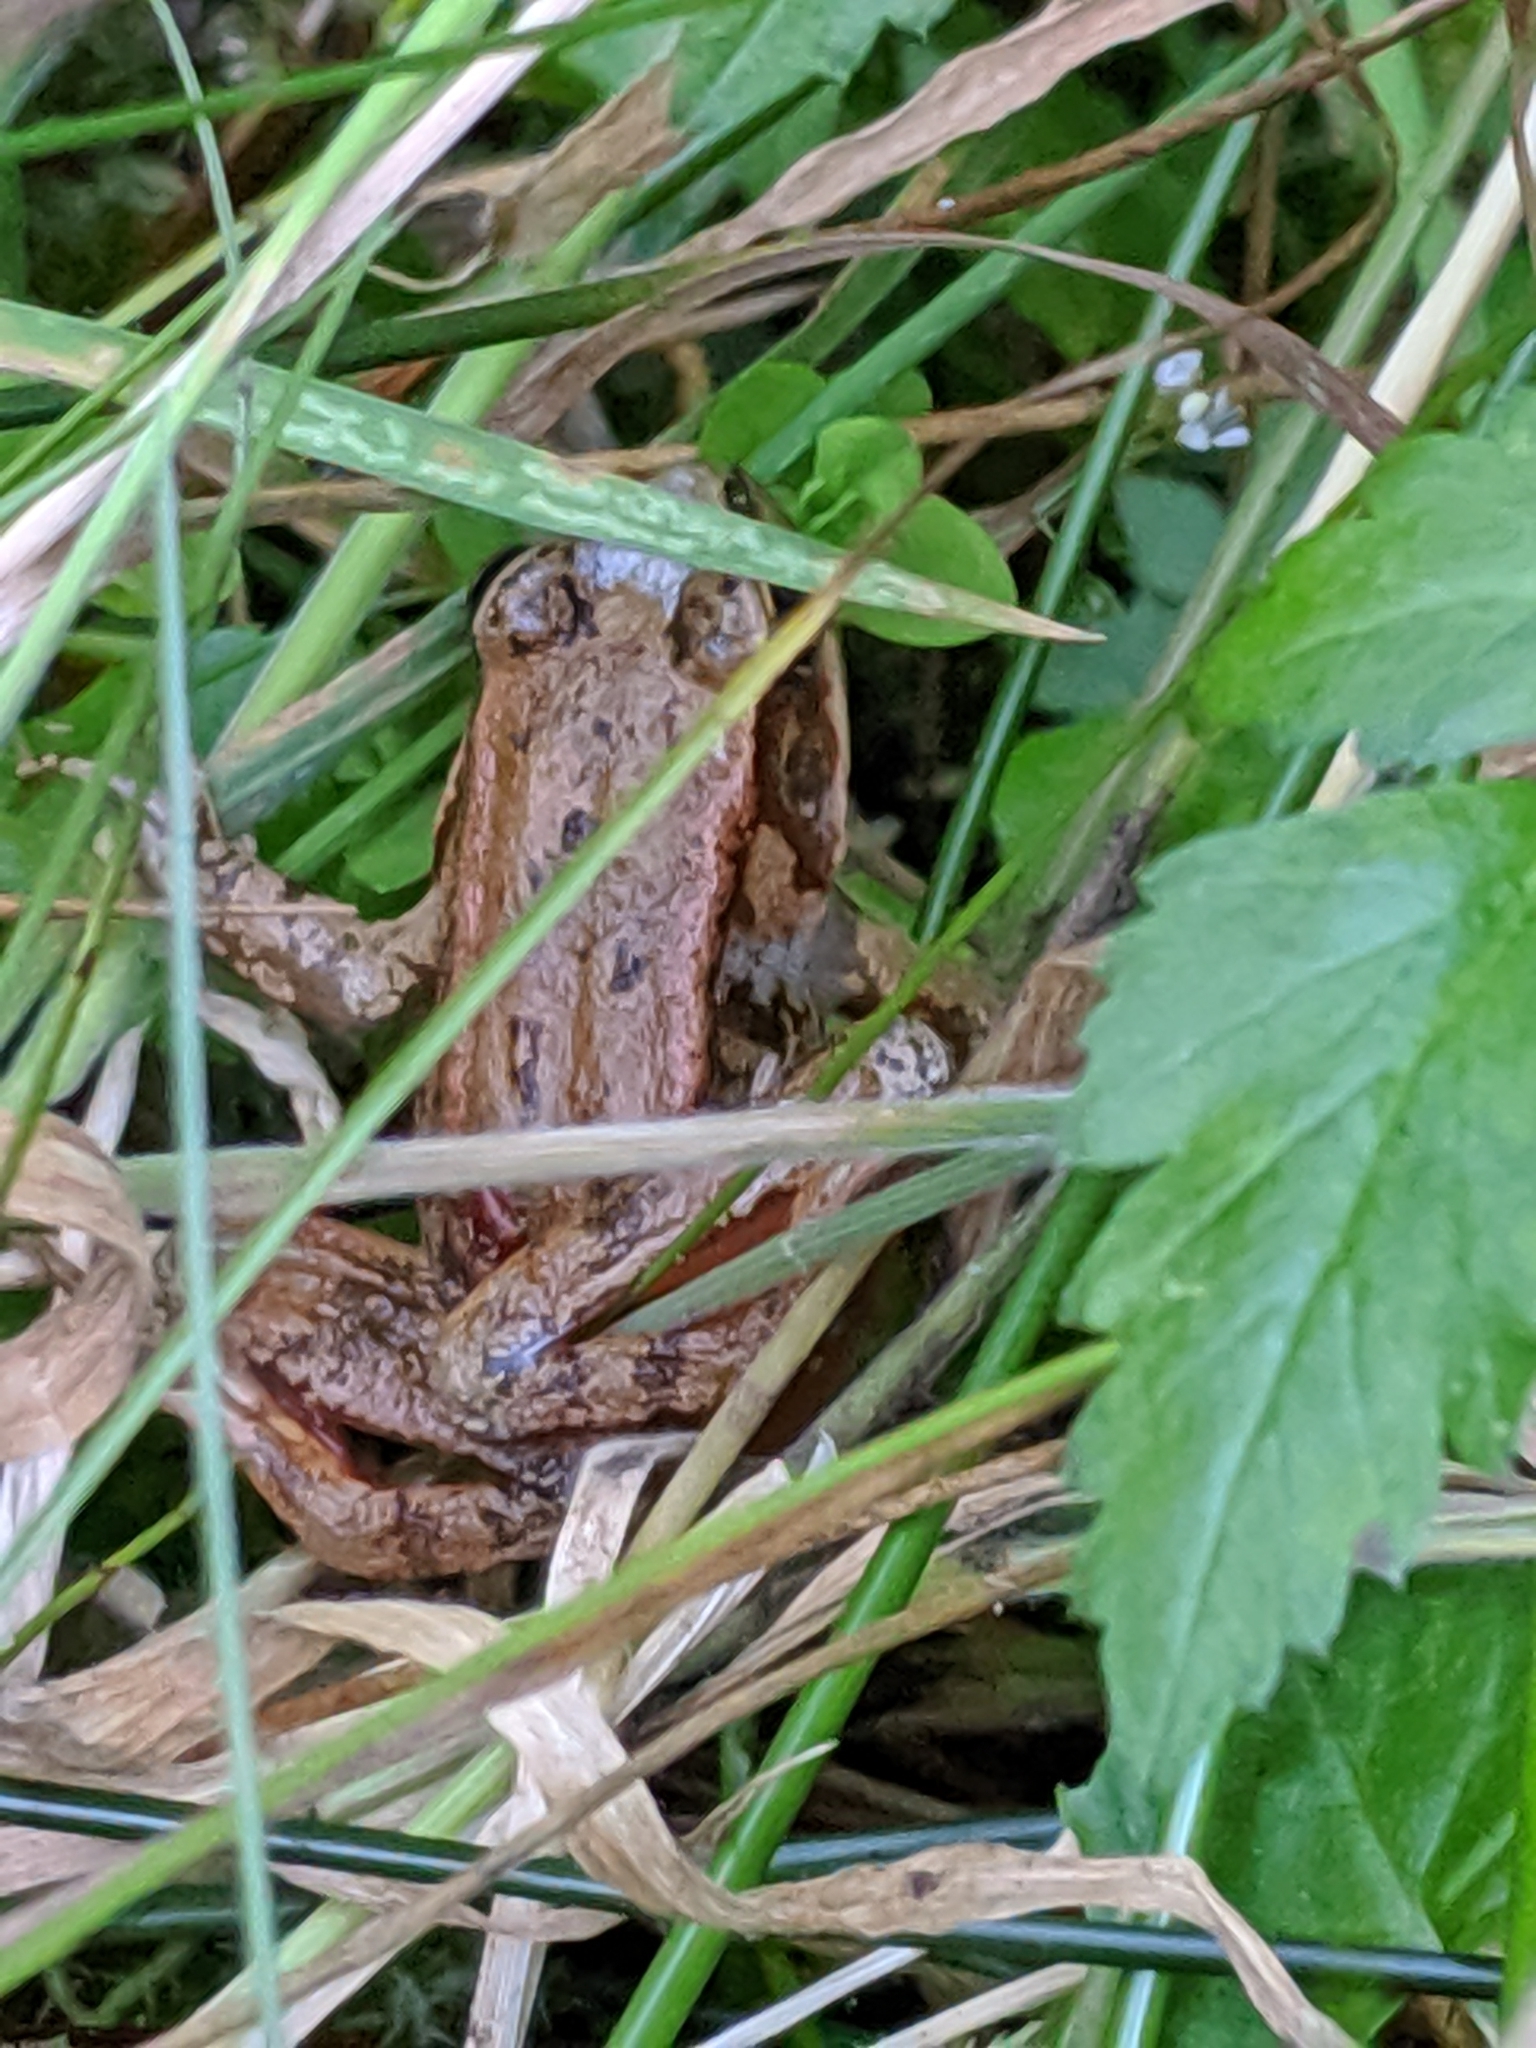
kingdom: Animalia
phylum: Chordata
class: Amphibia
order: Anura
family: Ranidae
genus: Rana
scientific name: Rana aurora
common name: Red-legged frog
